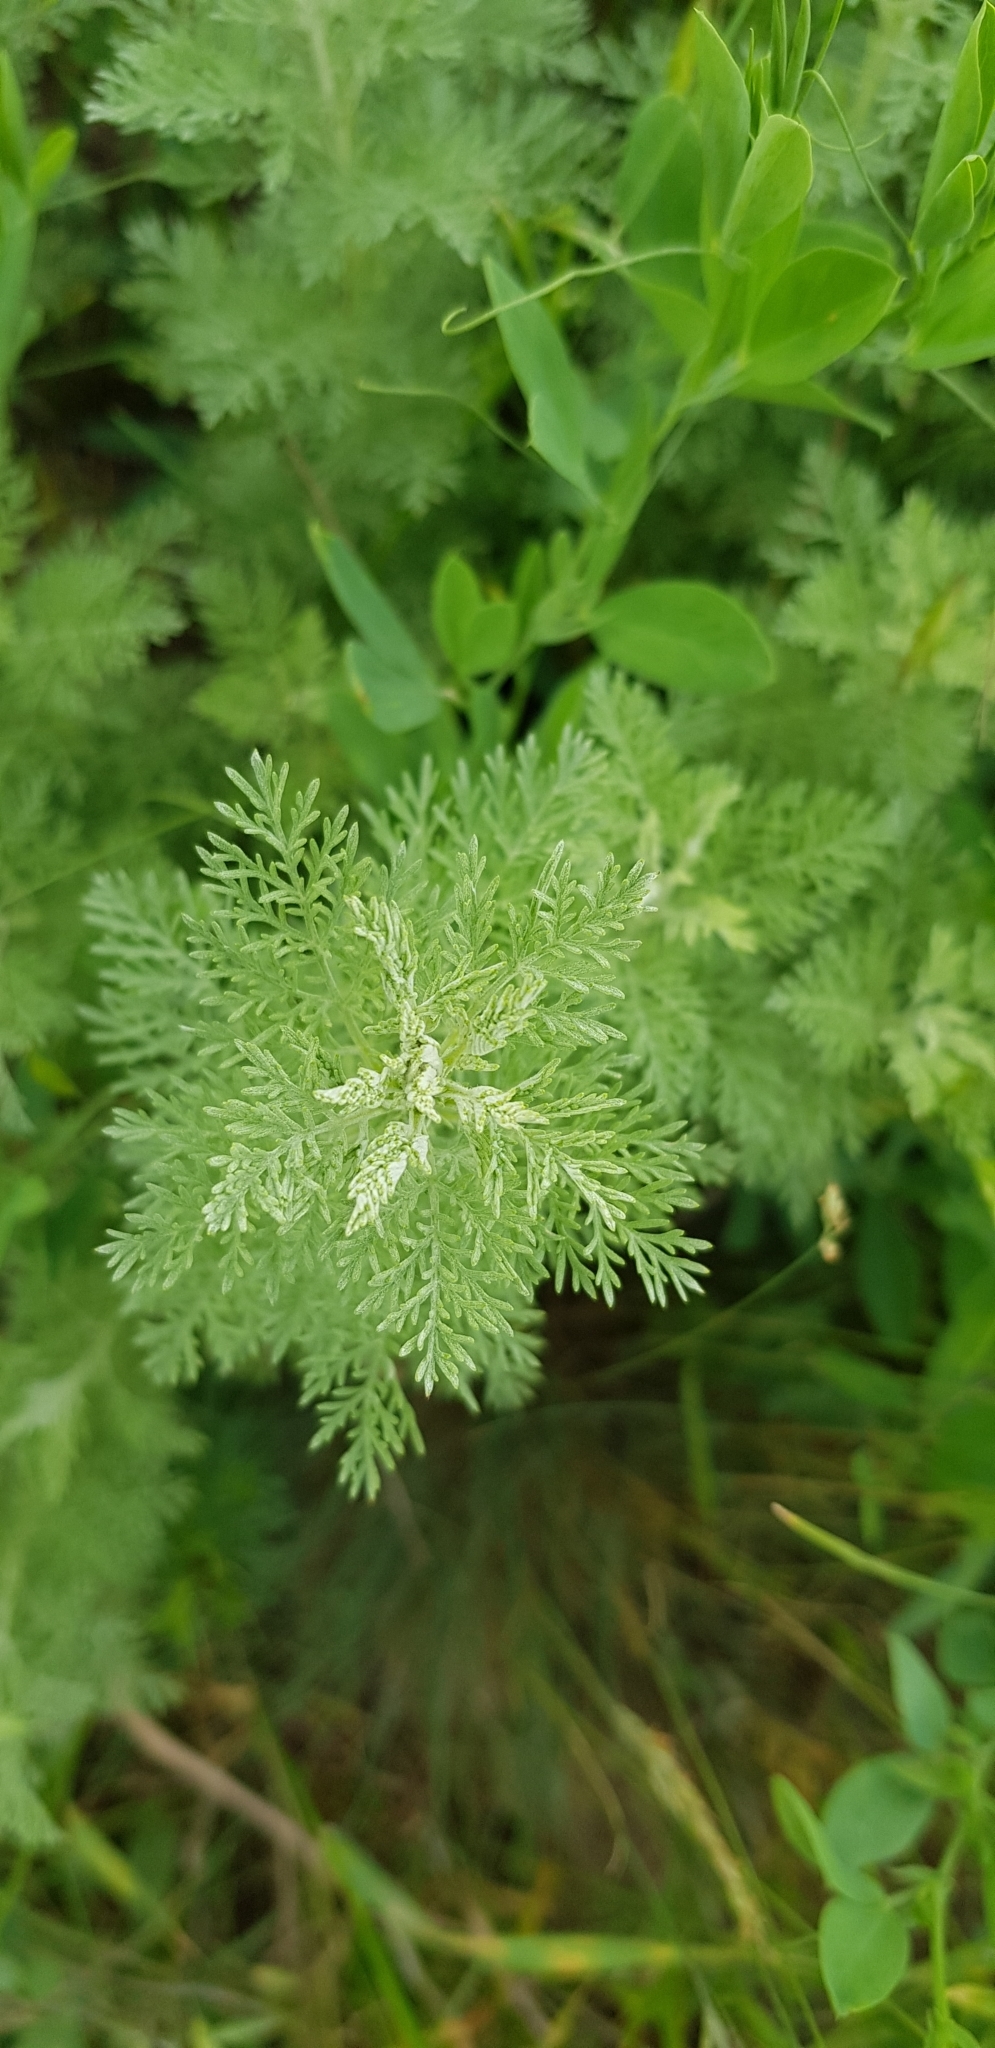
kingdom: Plantae
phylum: Tracheophyta
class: Magnoliopsida
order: Asterales
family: Asteraceae
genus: Artemisia
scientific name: Artemisia pontica
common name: Roman wormwood
